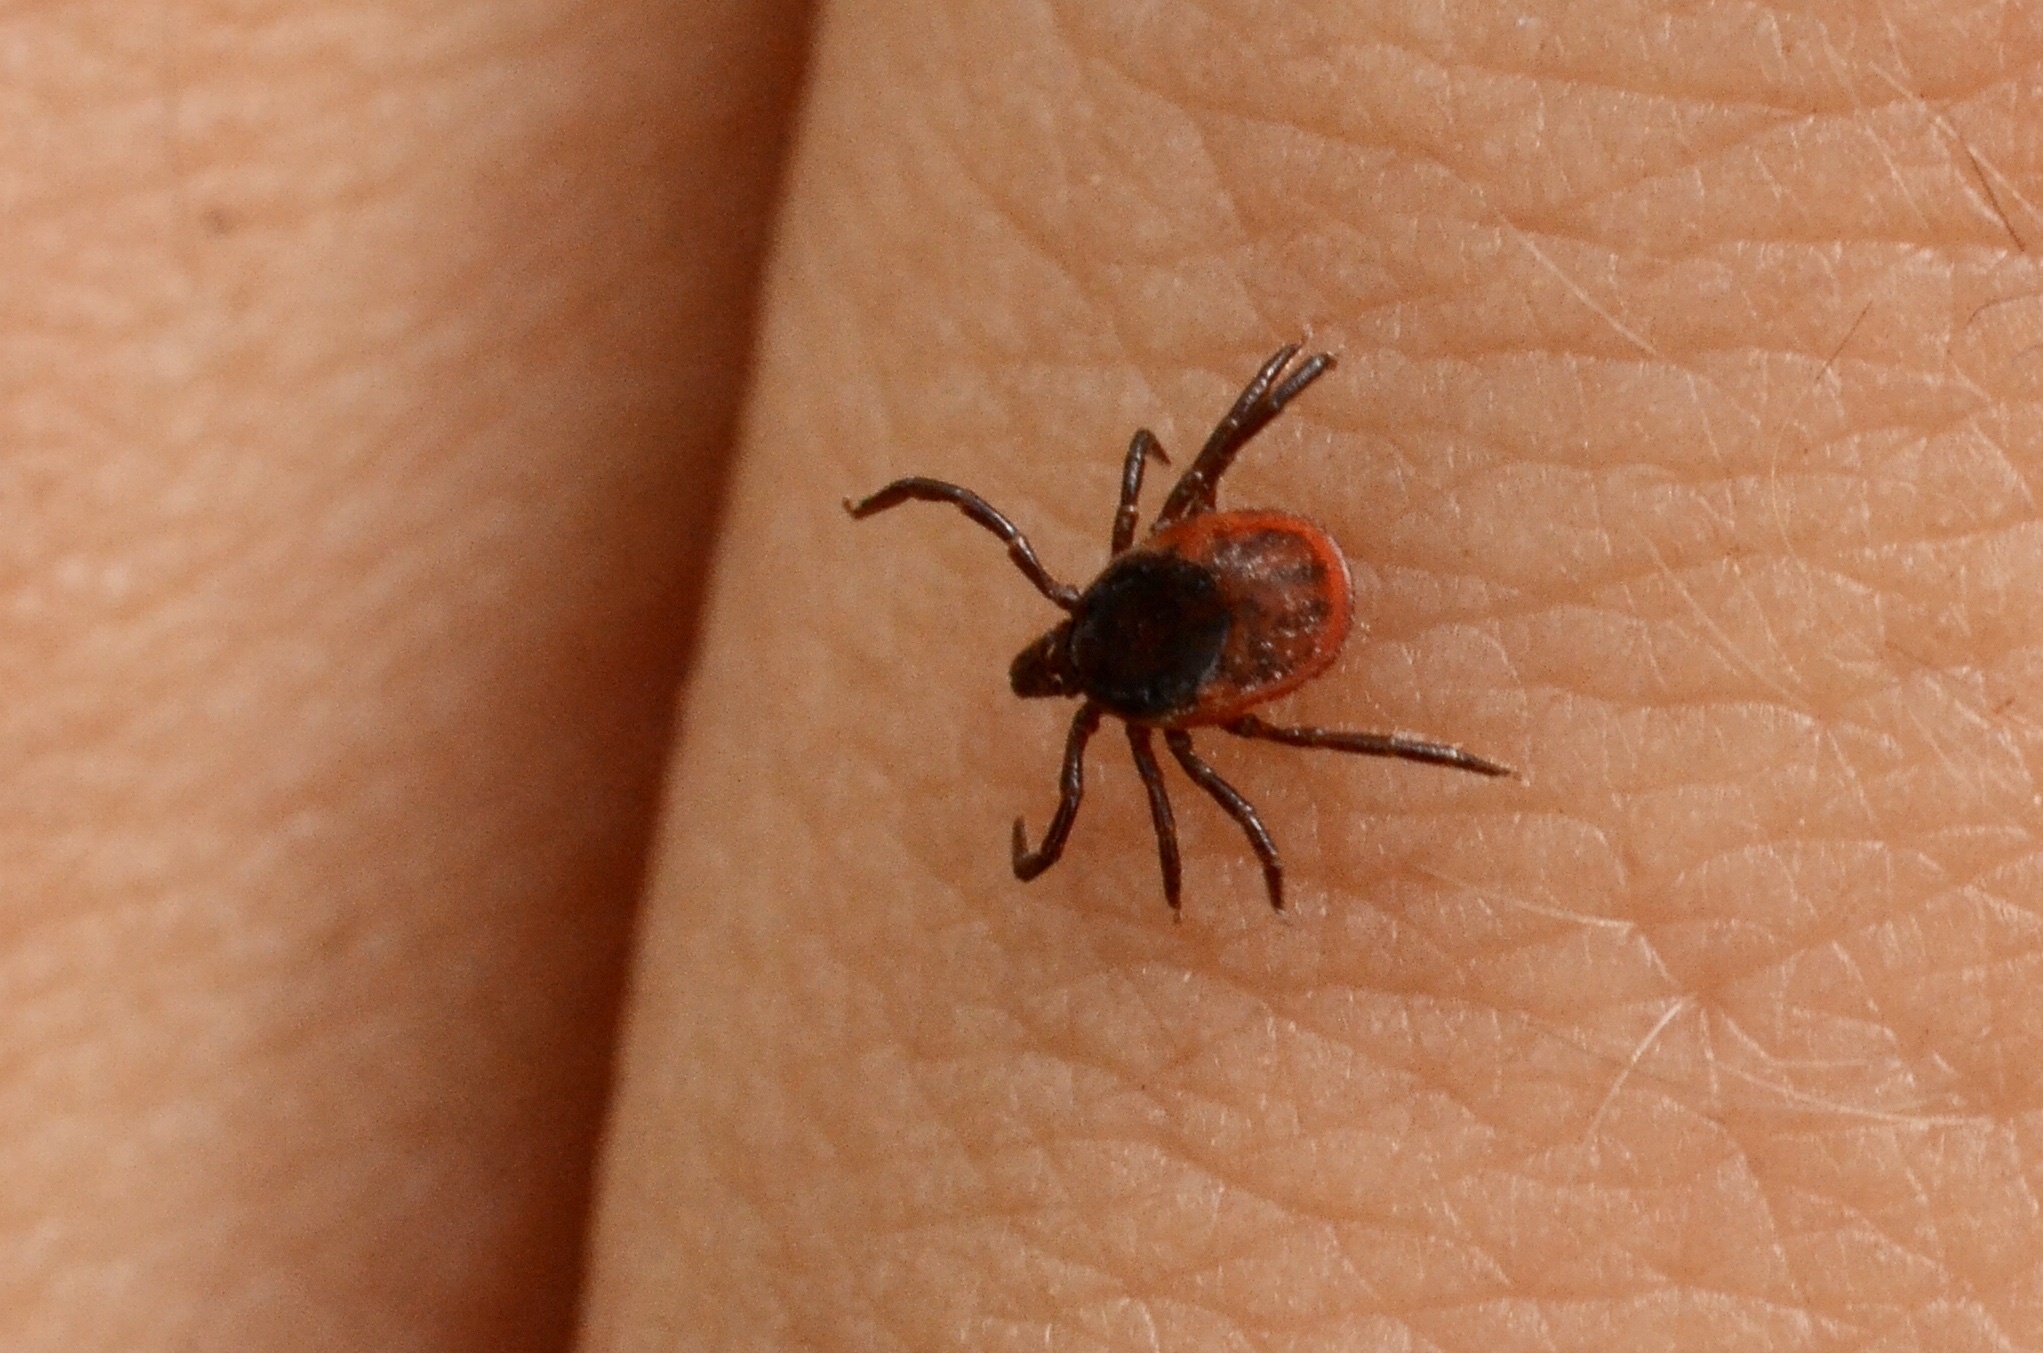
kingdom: Animalia
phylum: Arthropoda
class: Arachnida
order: Ixodida
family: Ixodidae
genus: Ixodes
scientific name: Ixodes ricinus
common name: Castor bean tick
